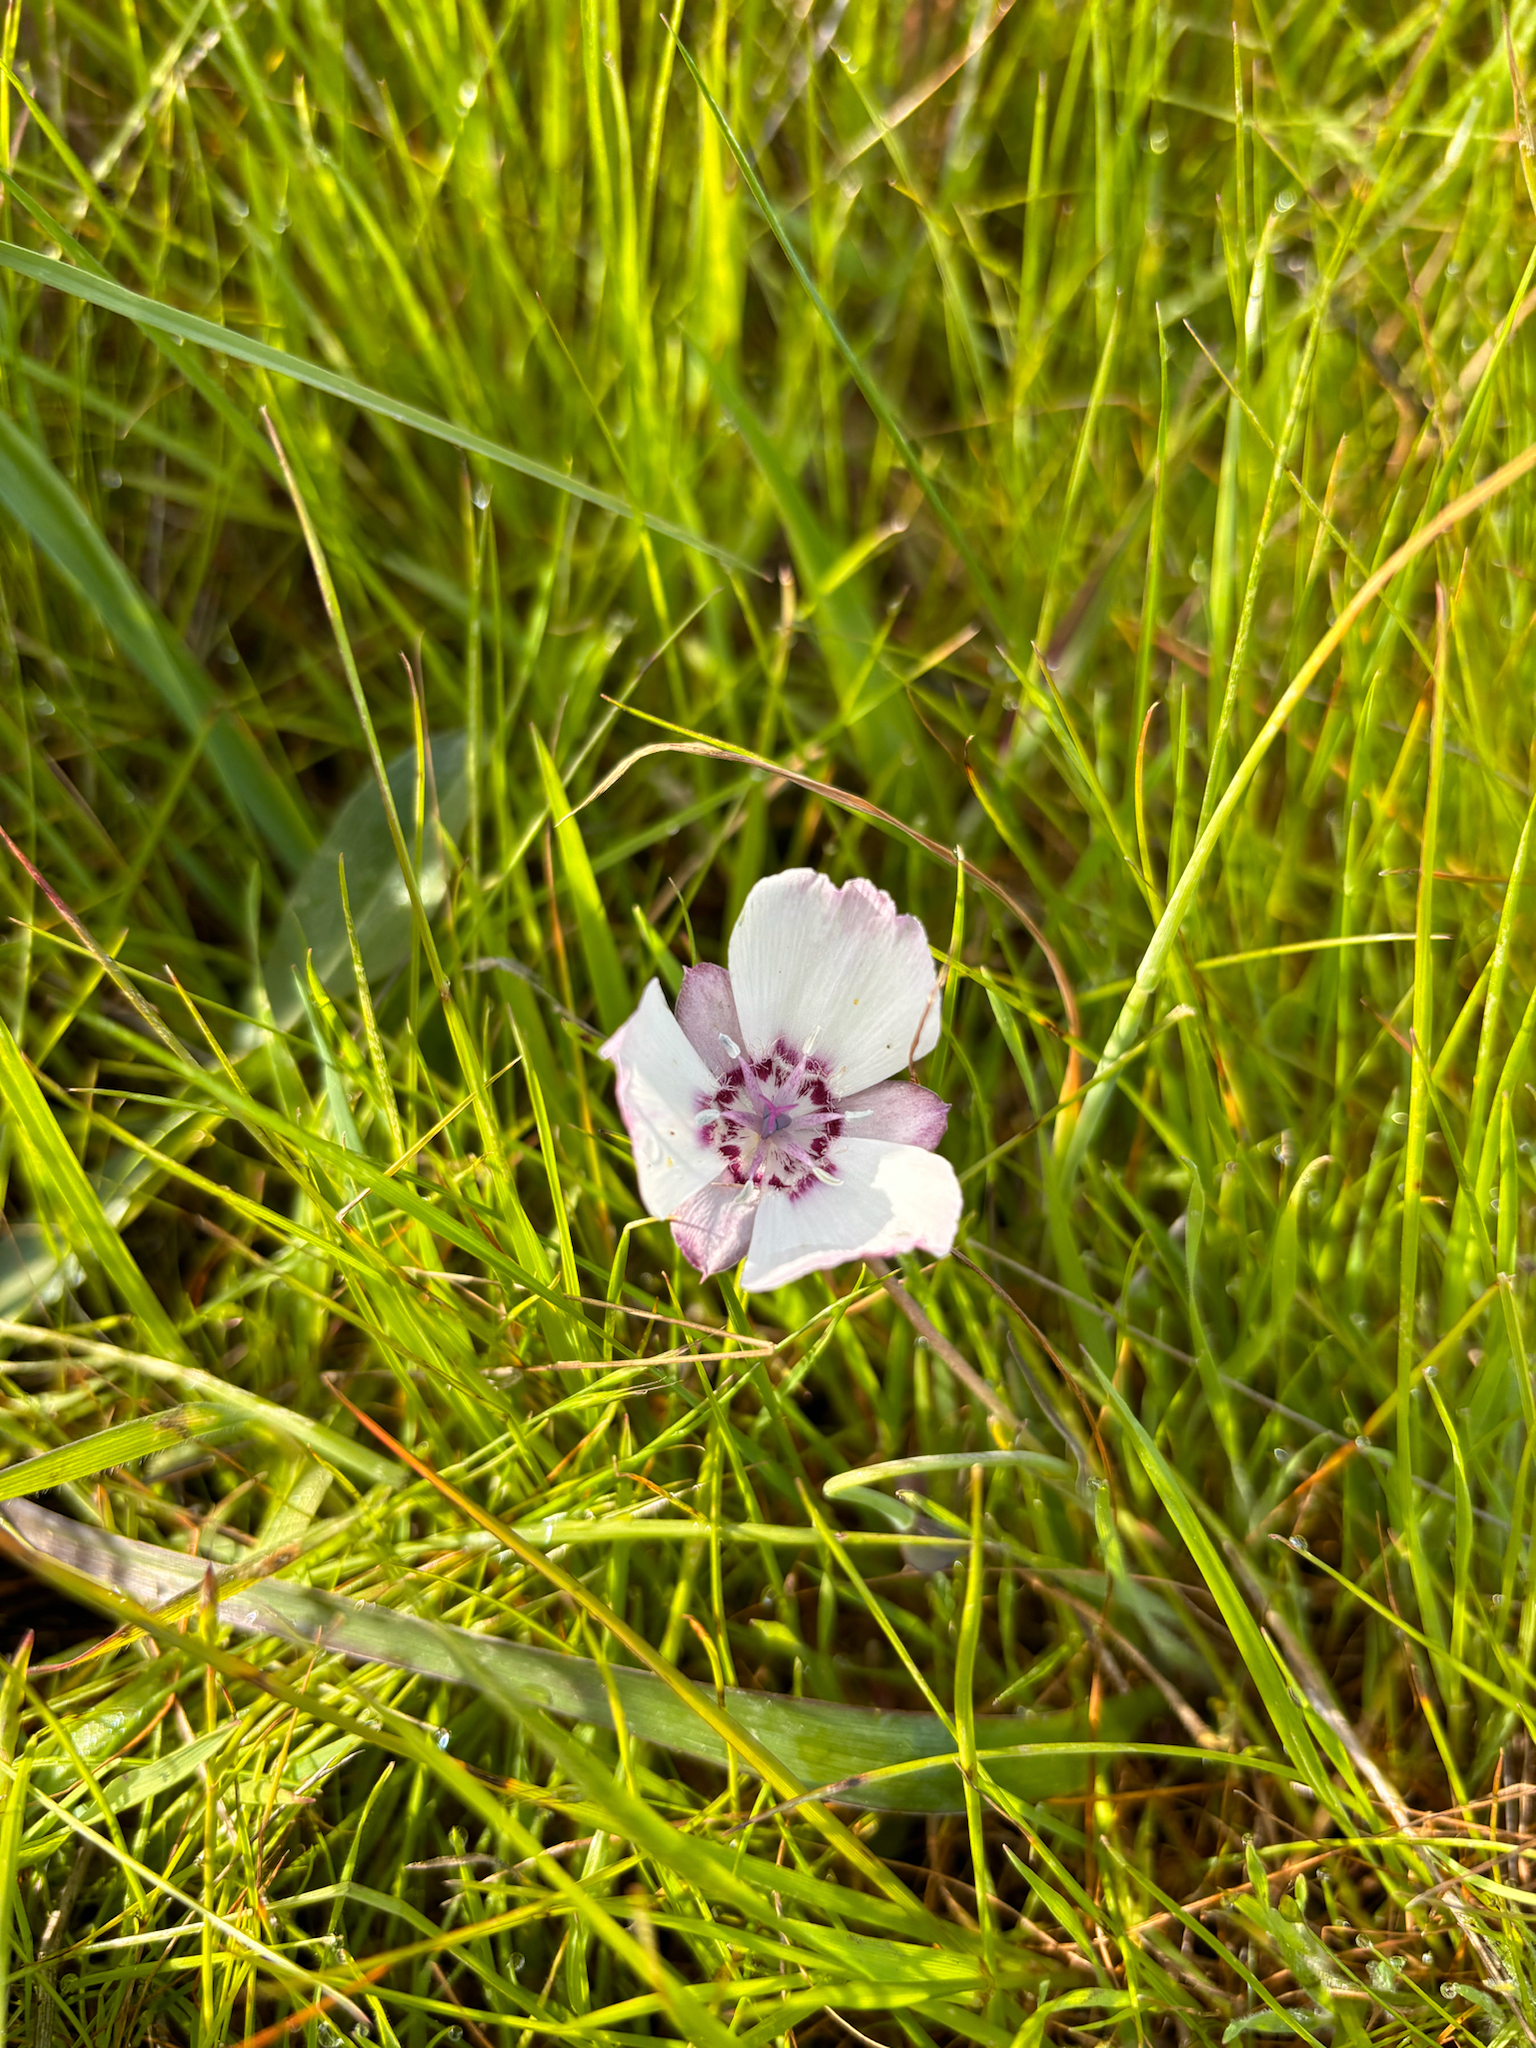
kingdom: Plantae
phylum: Tracheophyta
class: Liliopsida
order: Liliales
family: Liliaceae
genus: Calochortus
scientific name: Calochortus umbellatus
